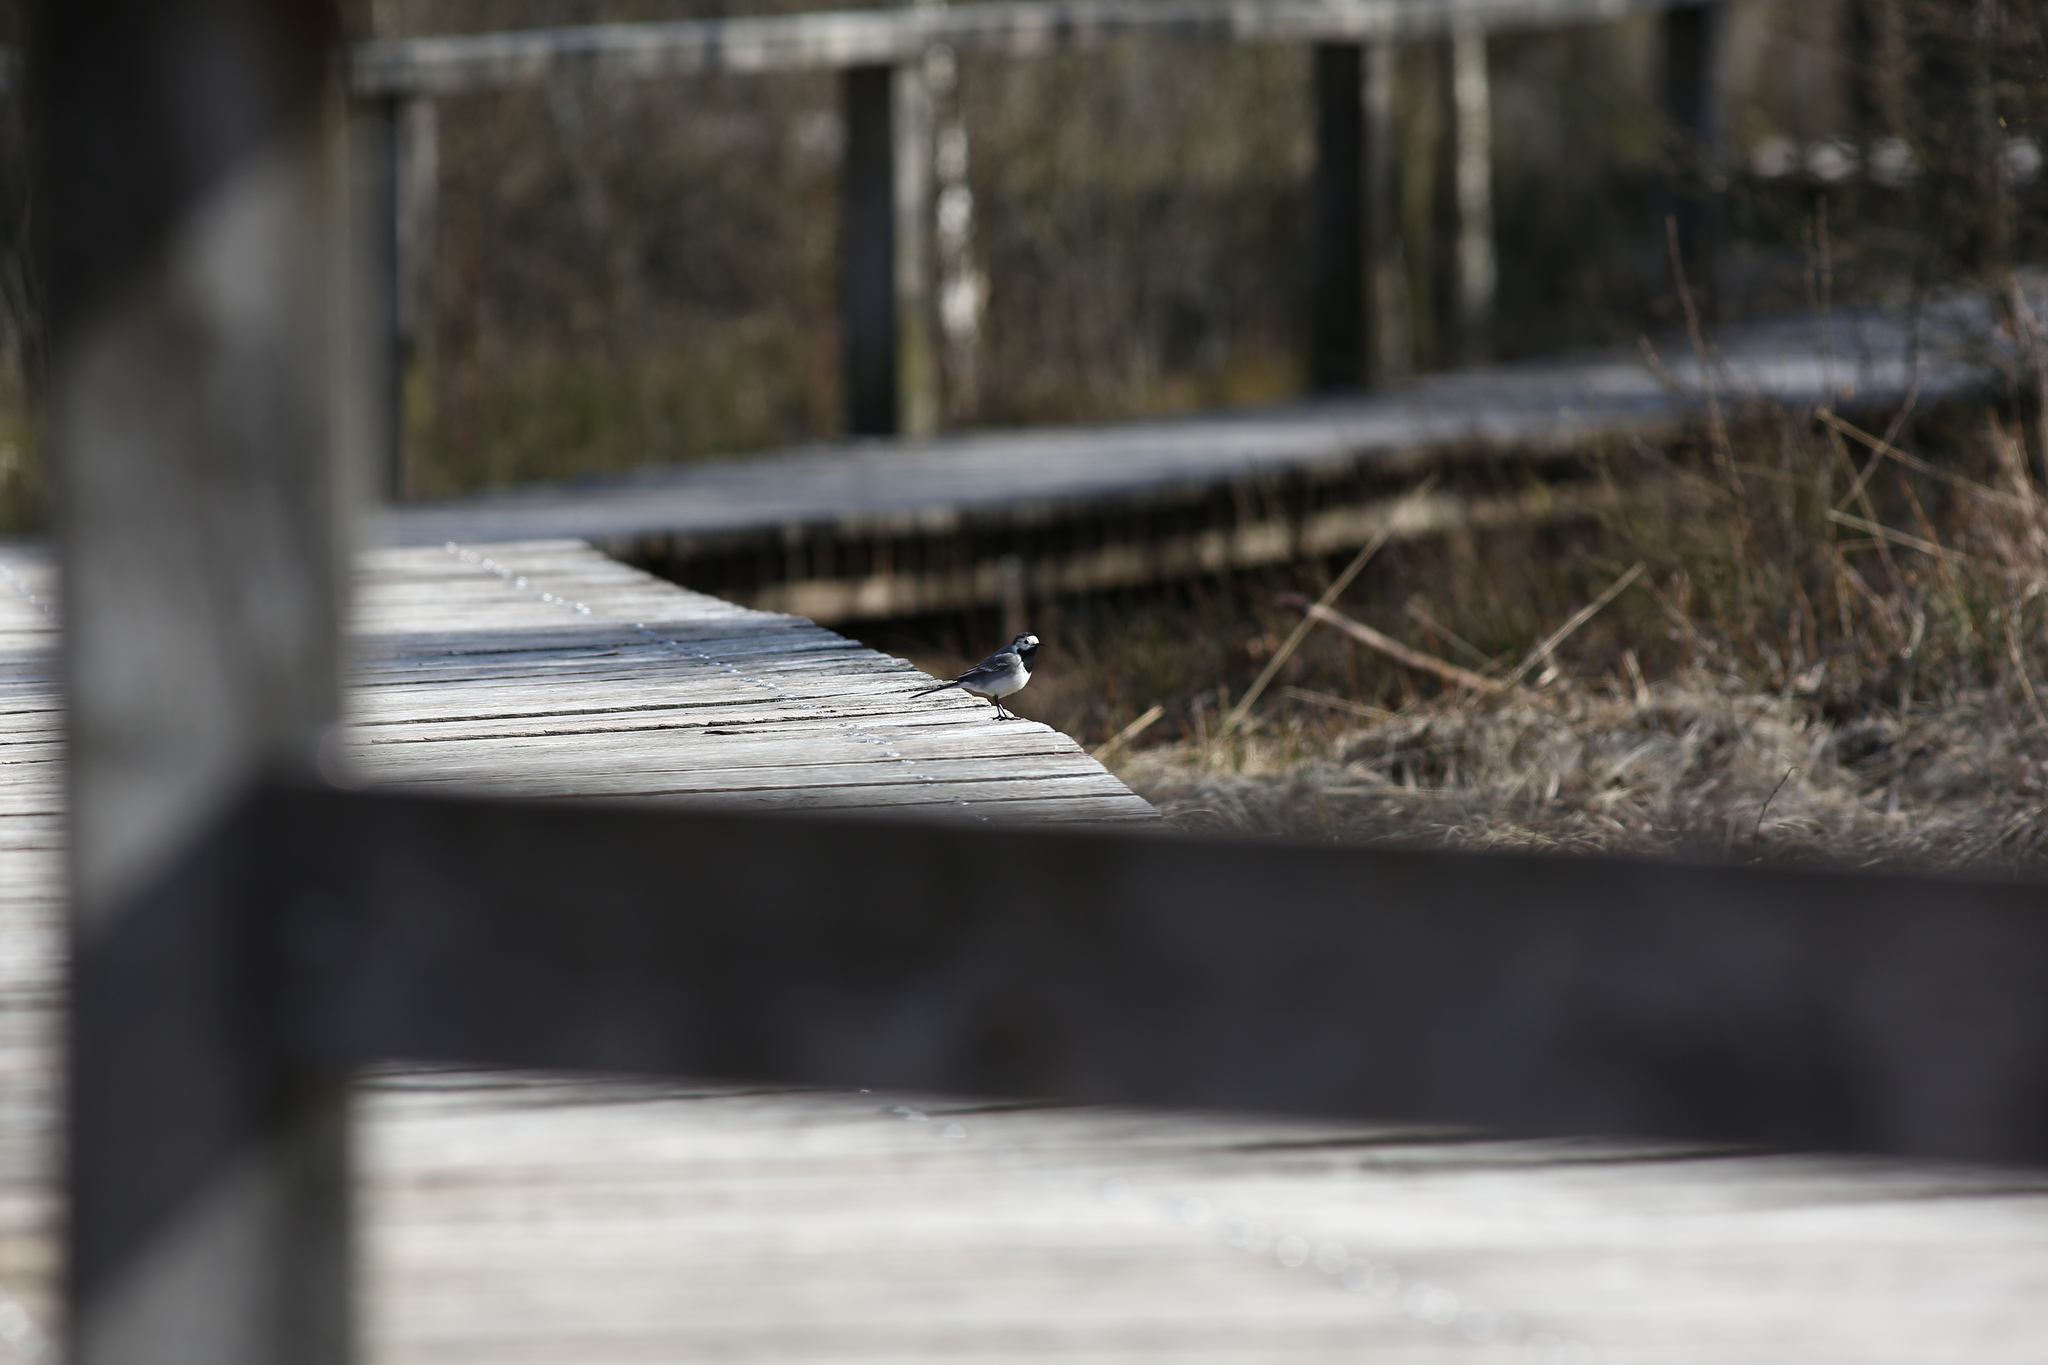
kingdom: Animalia
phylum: Chordata
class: Aves
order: Passeriformes
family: Motacillidae
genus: Motacilla
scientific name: Motacilla alba
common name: White wagtail
